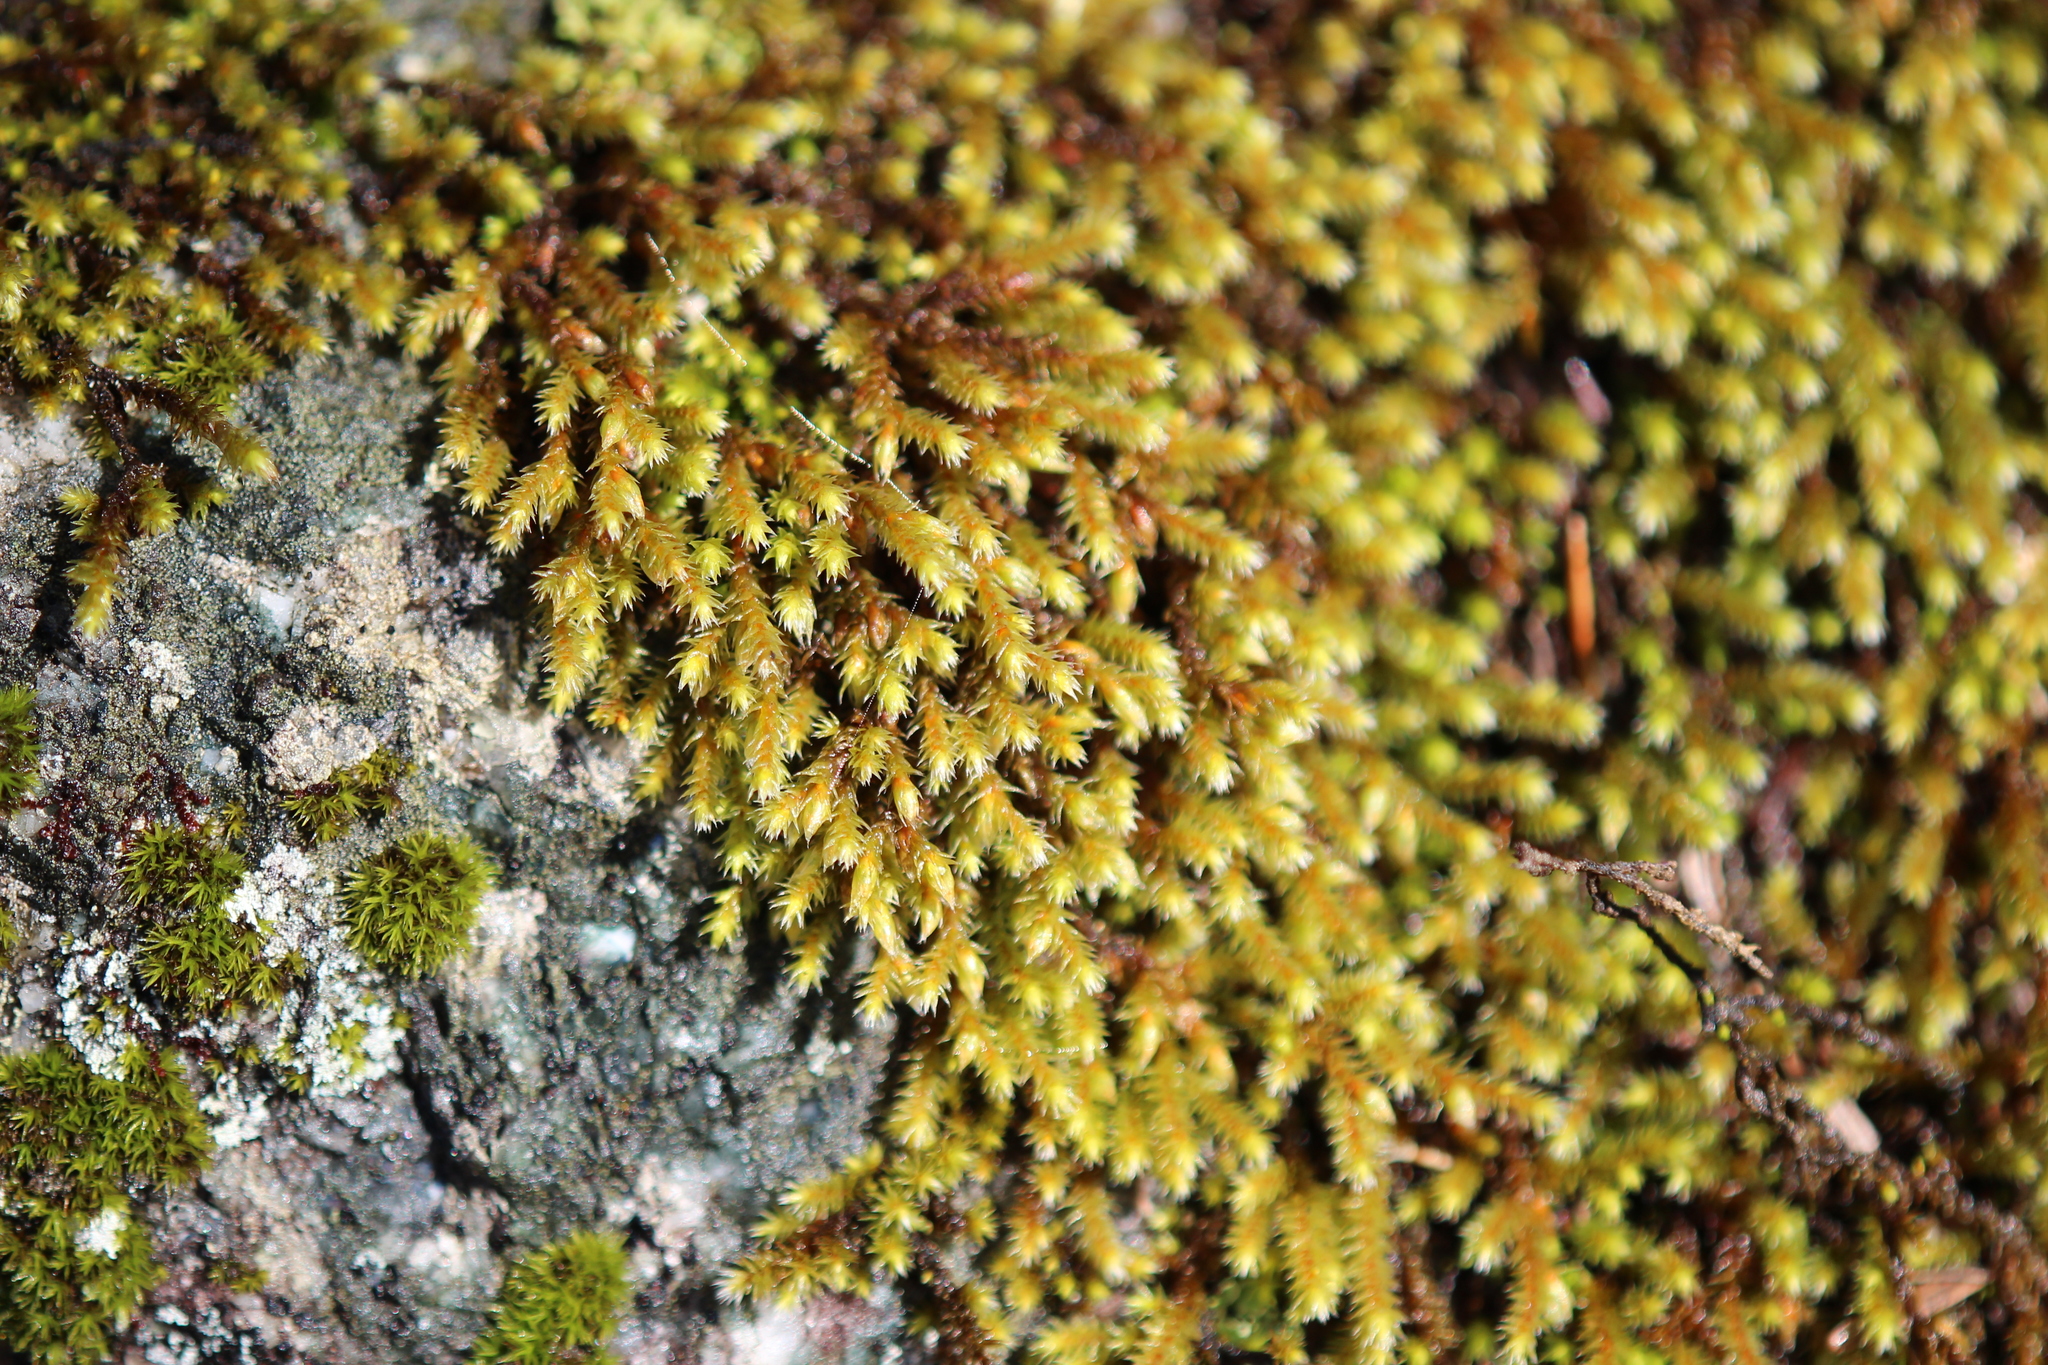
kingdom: Plantae
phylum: Bryophyta
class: Bryopsida
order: Hedwigiales
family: Hedwigiaceae
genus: Hedwigia
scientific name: Hedwigia ciliata
